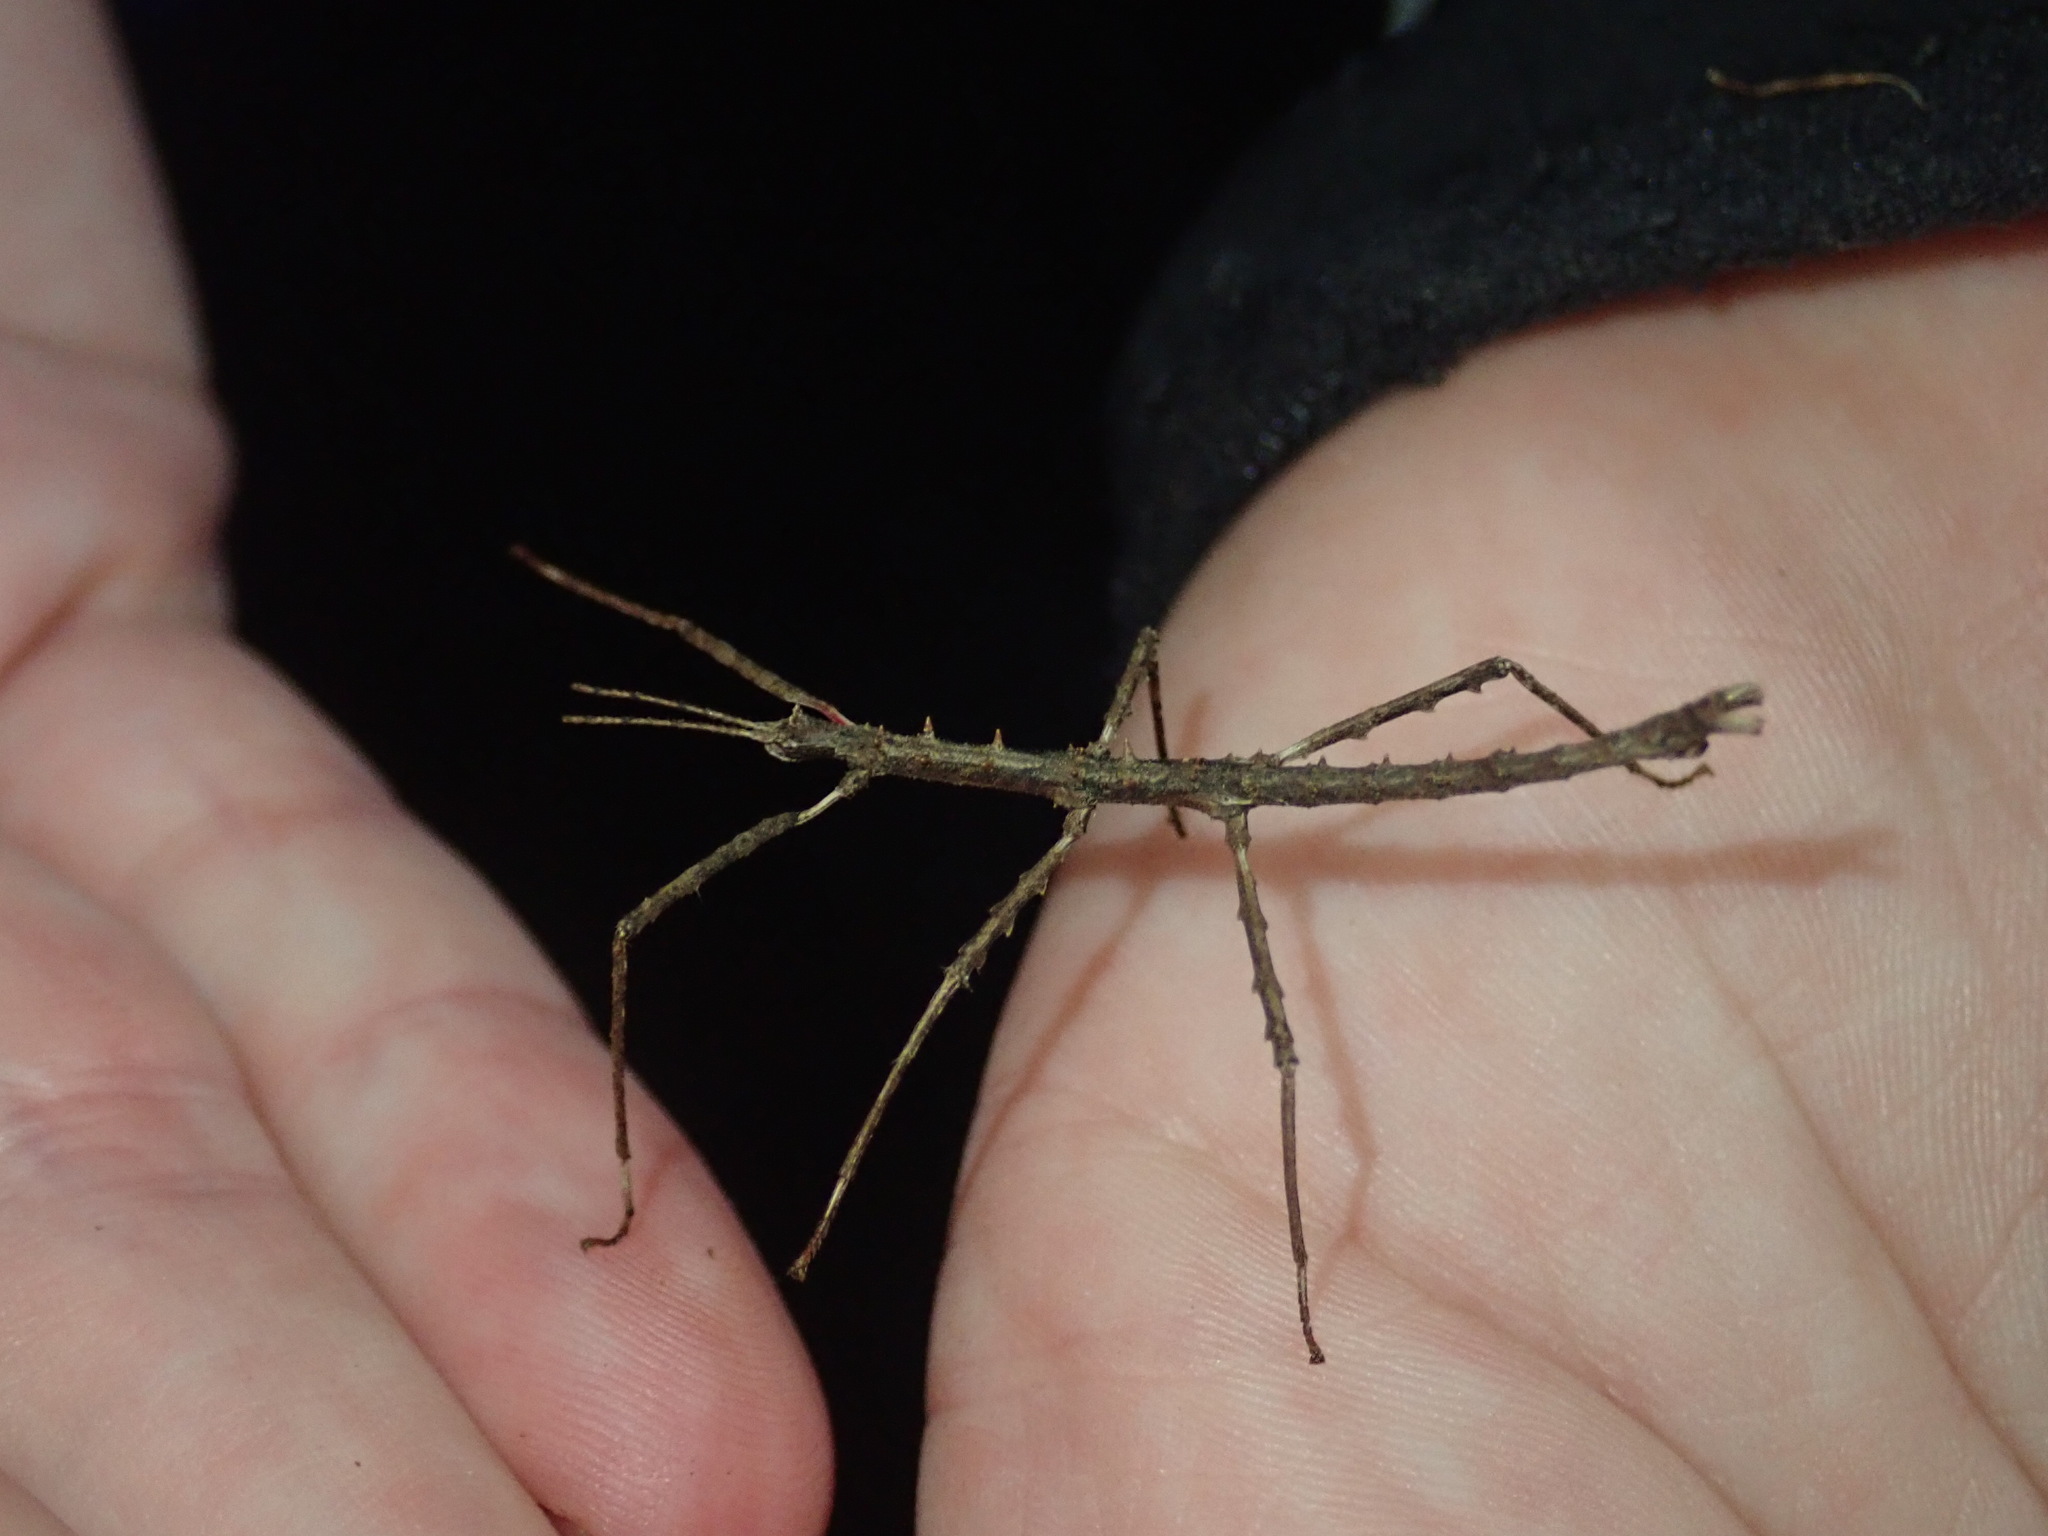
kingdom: Animalia
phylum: Arthropoda
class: Insecta
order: Phasmida
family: Phasmatidae
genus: Micrarchus
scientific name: Micrarchus hystriculeus
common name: The lesser spiny stick insect
